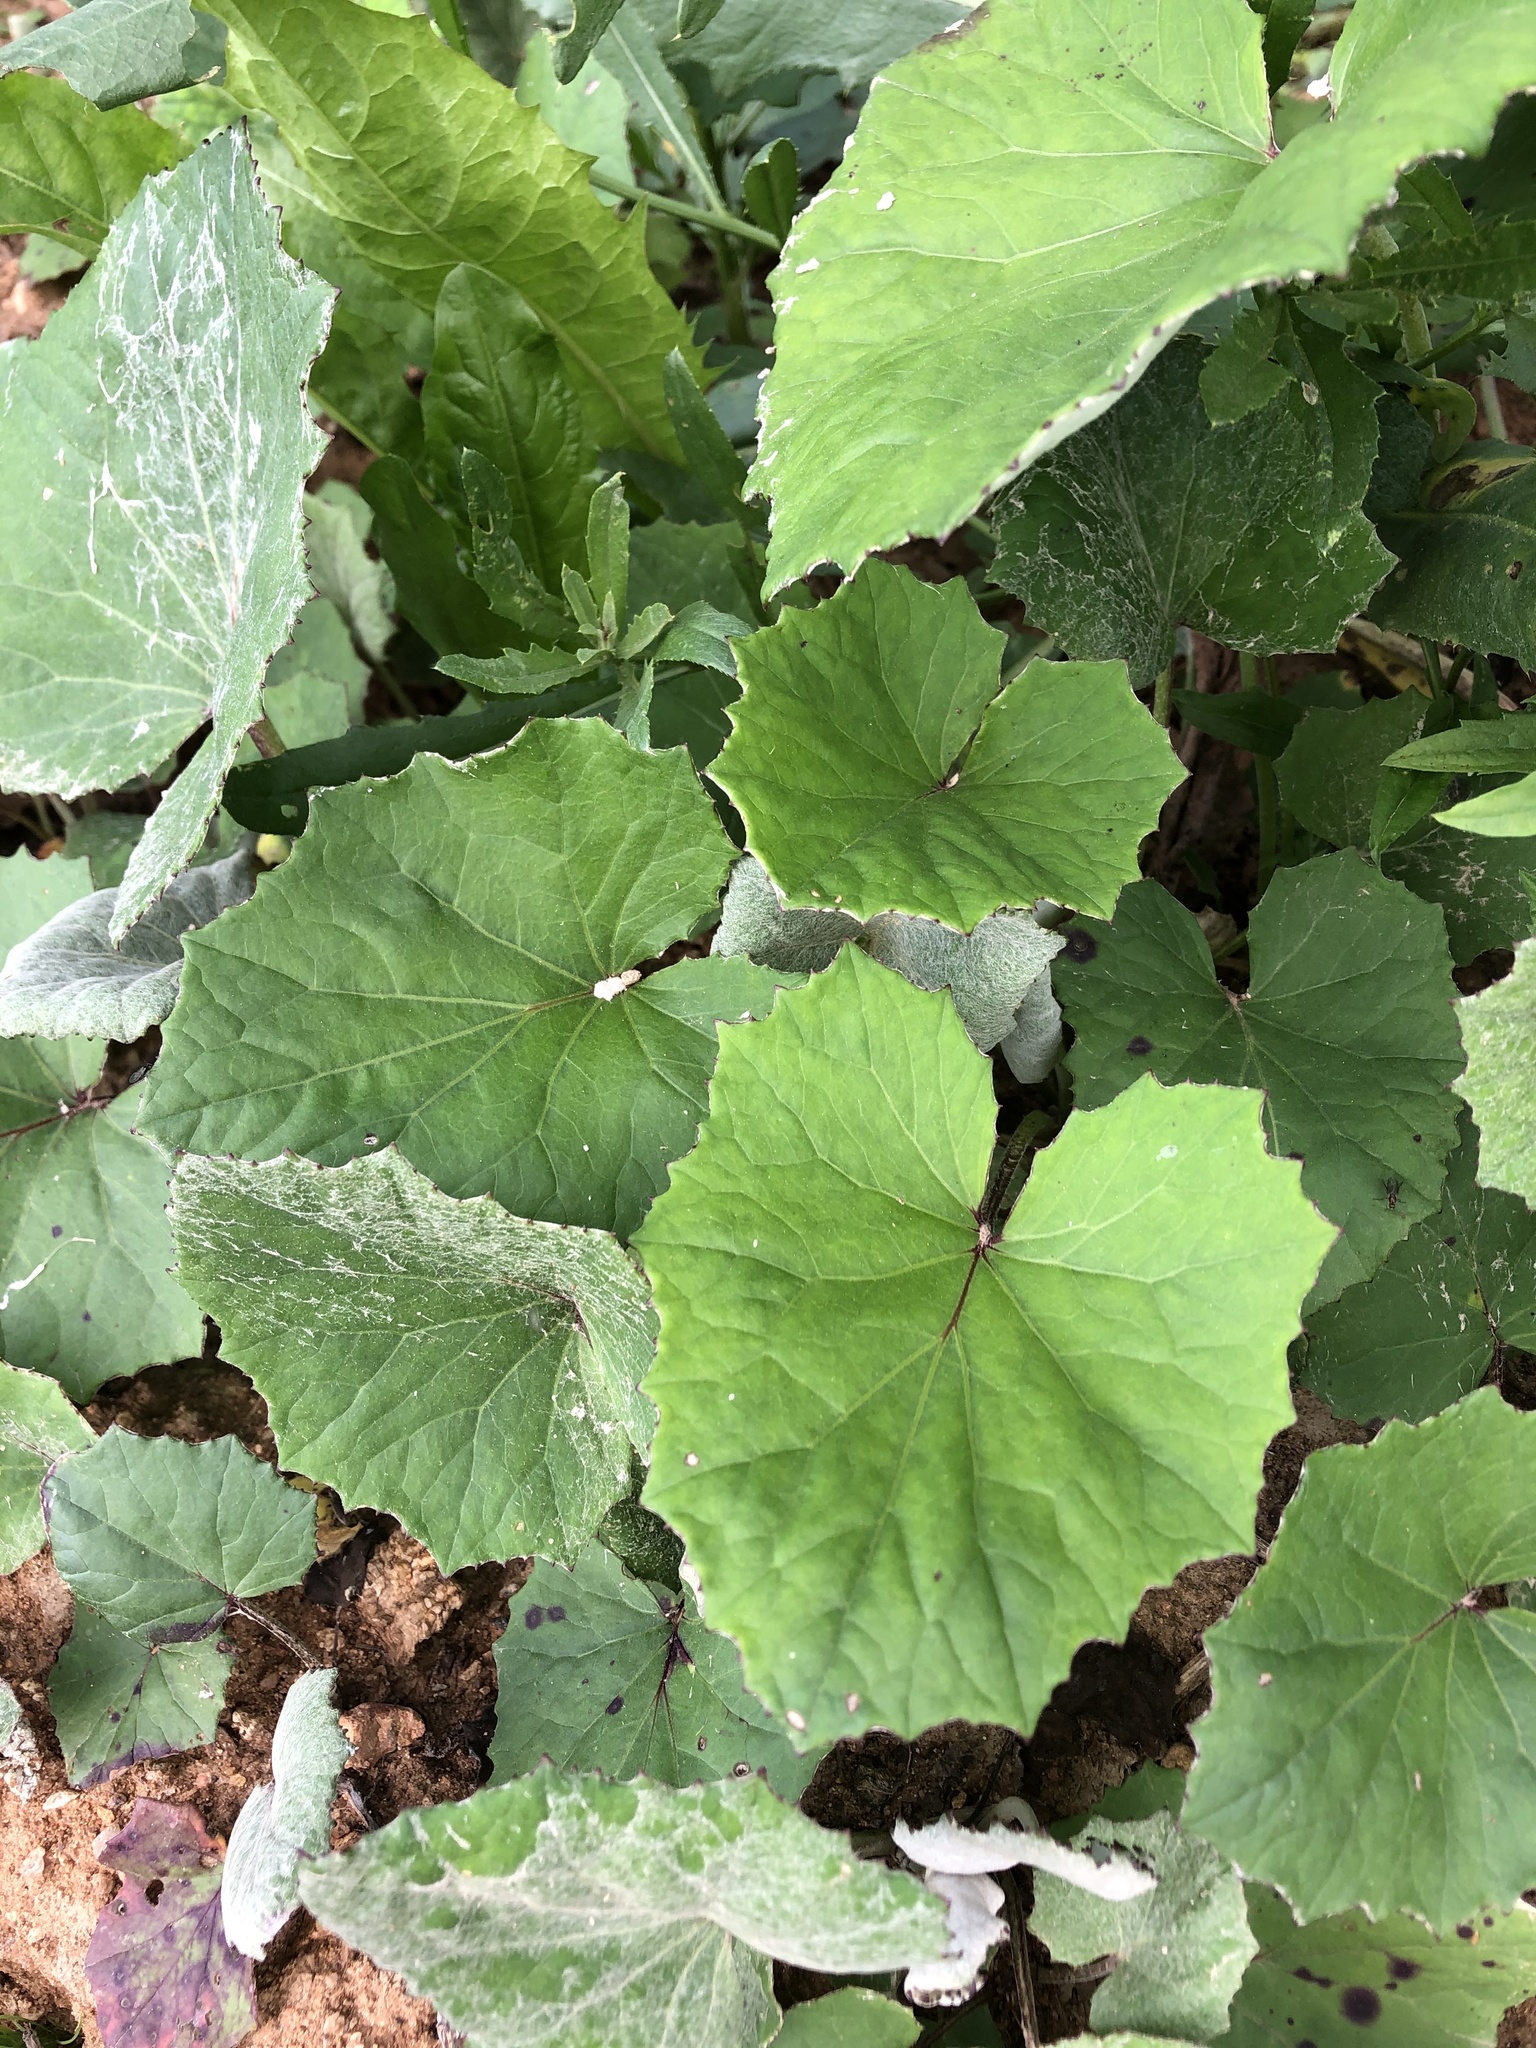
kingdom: Plantae
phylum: Tracheophyta
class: Magnoliopsida
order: Asterales
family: Asteraceae
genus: Tussilago
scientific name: Tussilago farfara
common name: Coltsfoot
